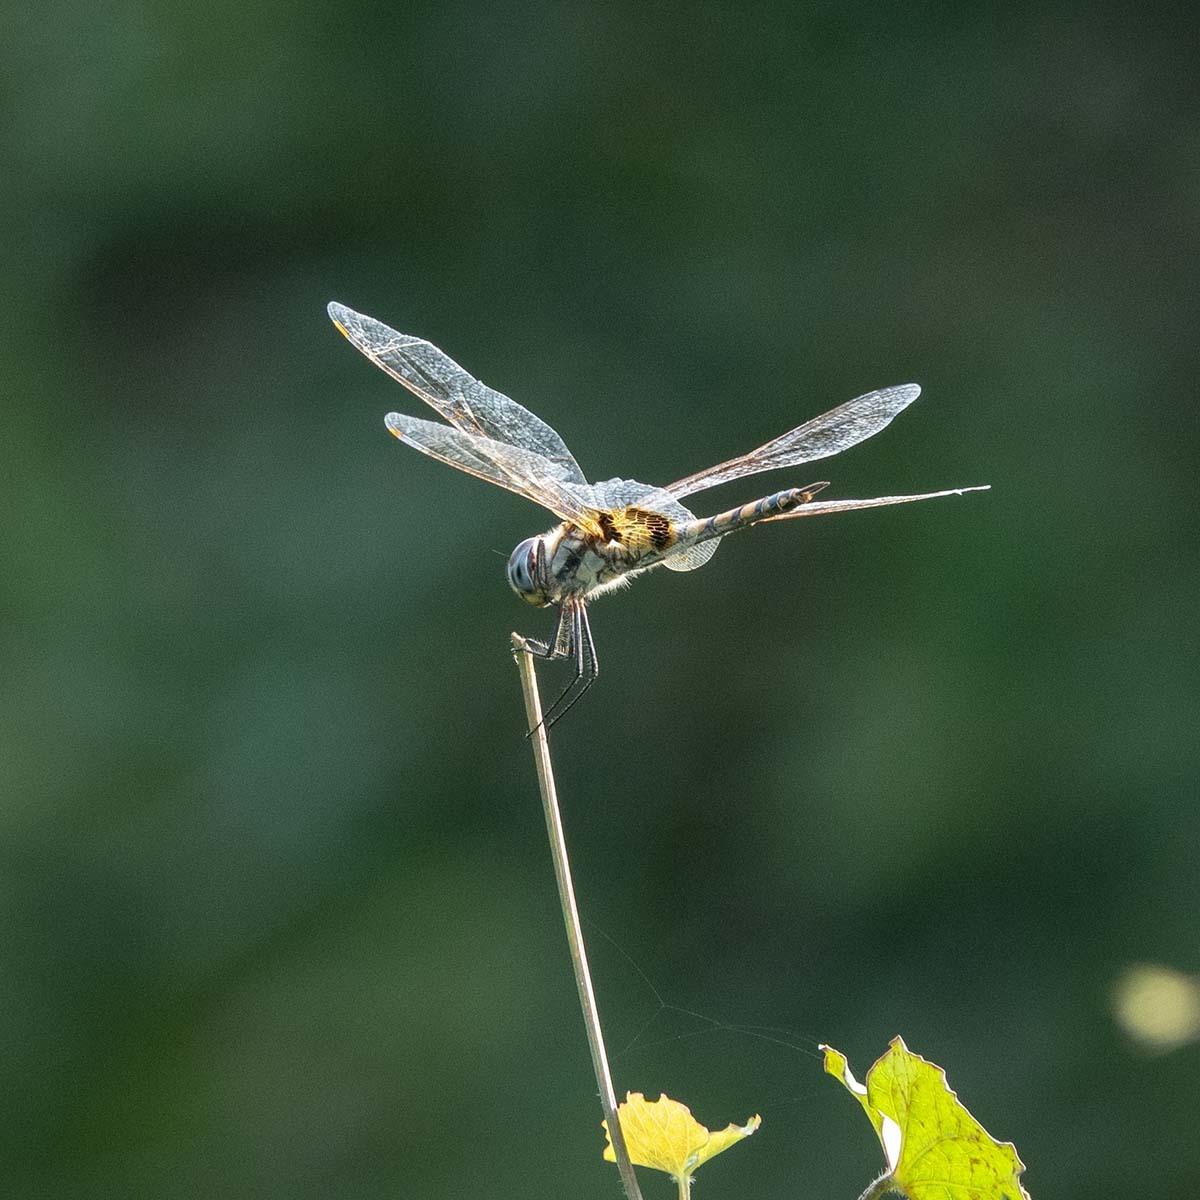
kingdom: Animalia
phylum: Arthropoda
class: Insecta
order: Odonata
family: Libellulidae
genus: Tramea
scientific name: Tramea basilaris
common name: Keyhole glider
